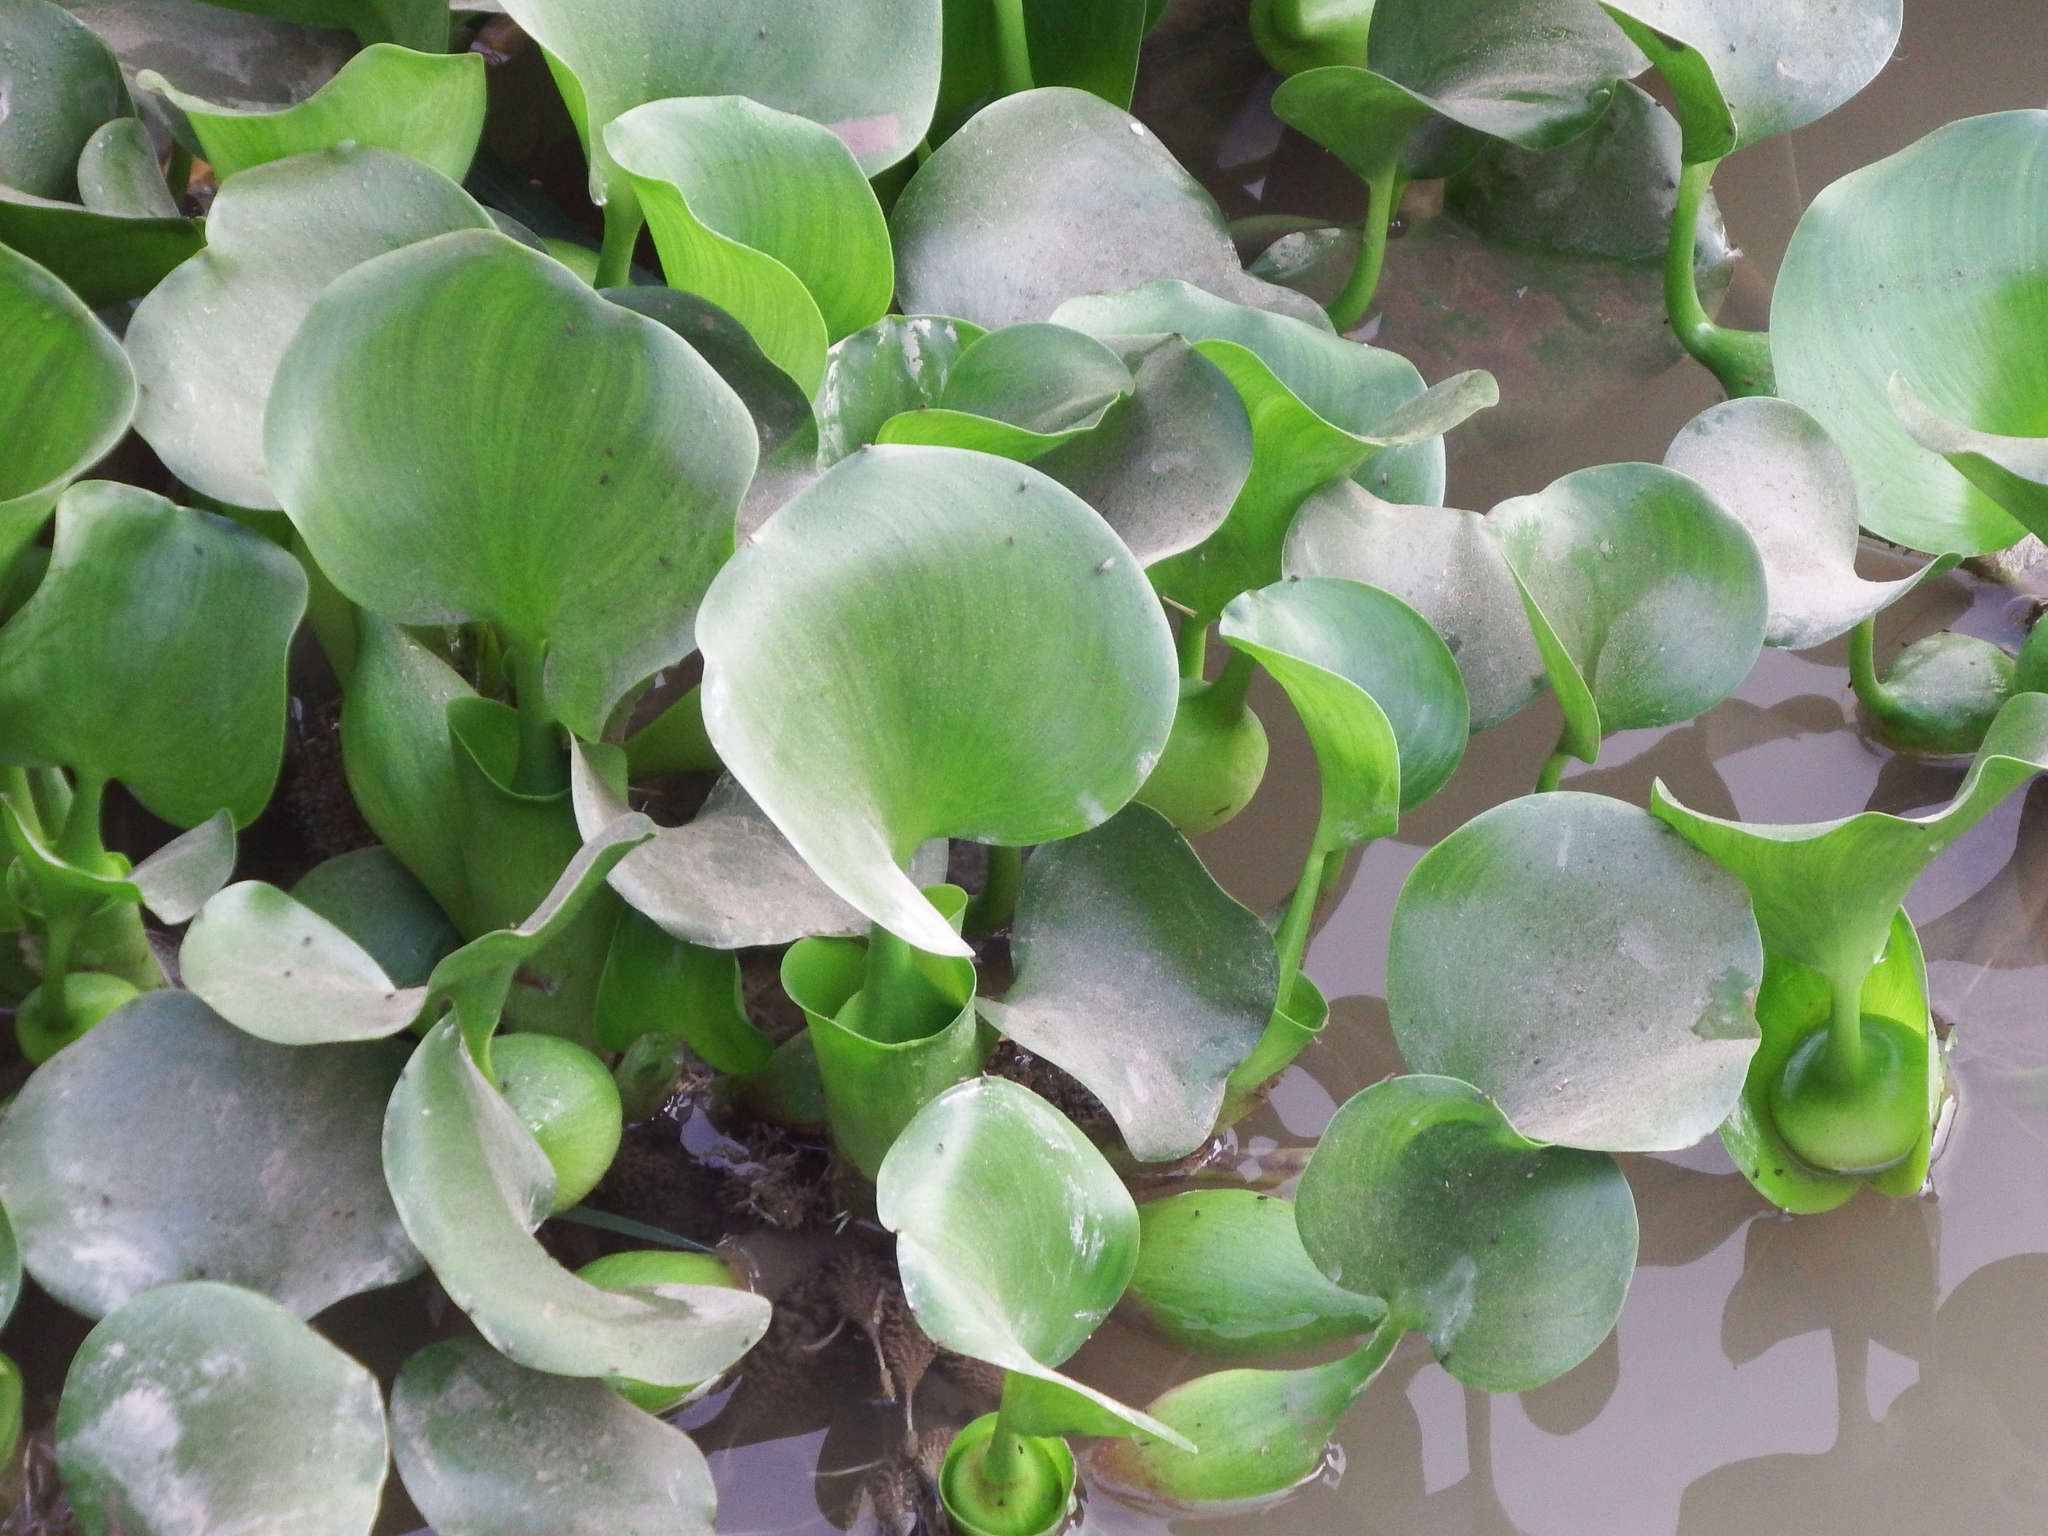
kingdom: Plantae
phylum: Tracheophyta
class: Liliopsida
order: Commelinales
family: Pontederiaceae
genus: Pontederia
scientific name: Pontederia crassipes
